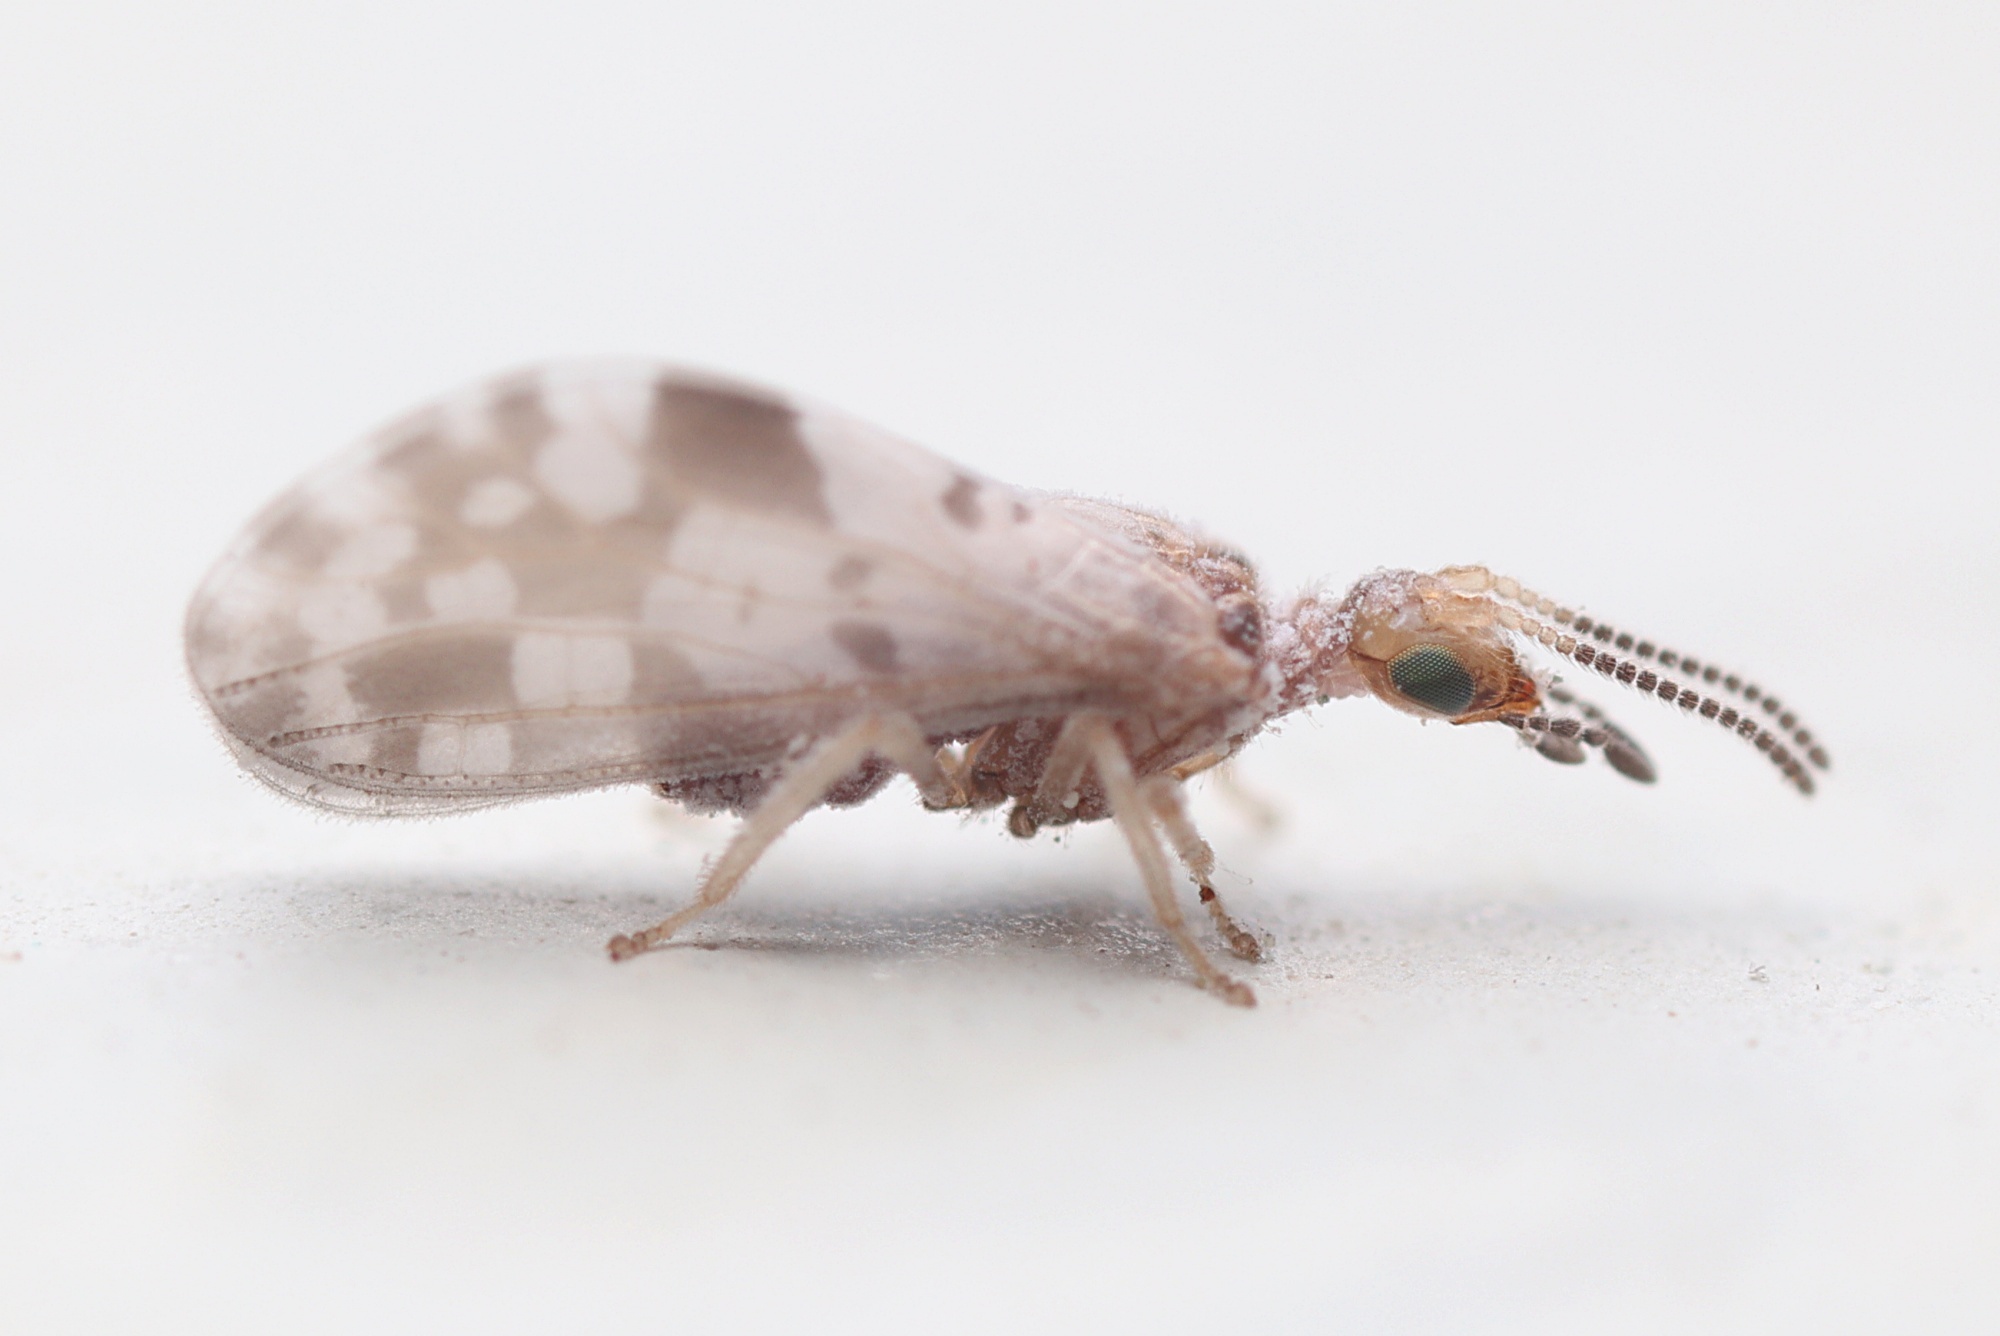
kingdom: Animalia
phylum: Arthropoda
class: Insecta
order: Neuroptera
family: Coniopterygidae
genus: Heteroconis
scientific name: Heteroconis ornata
